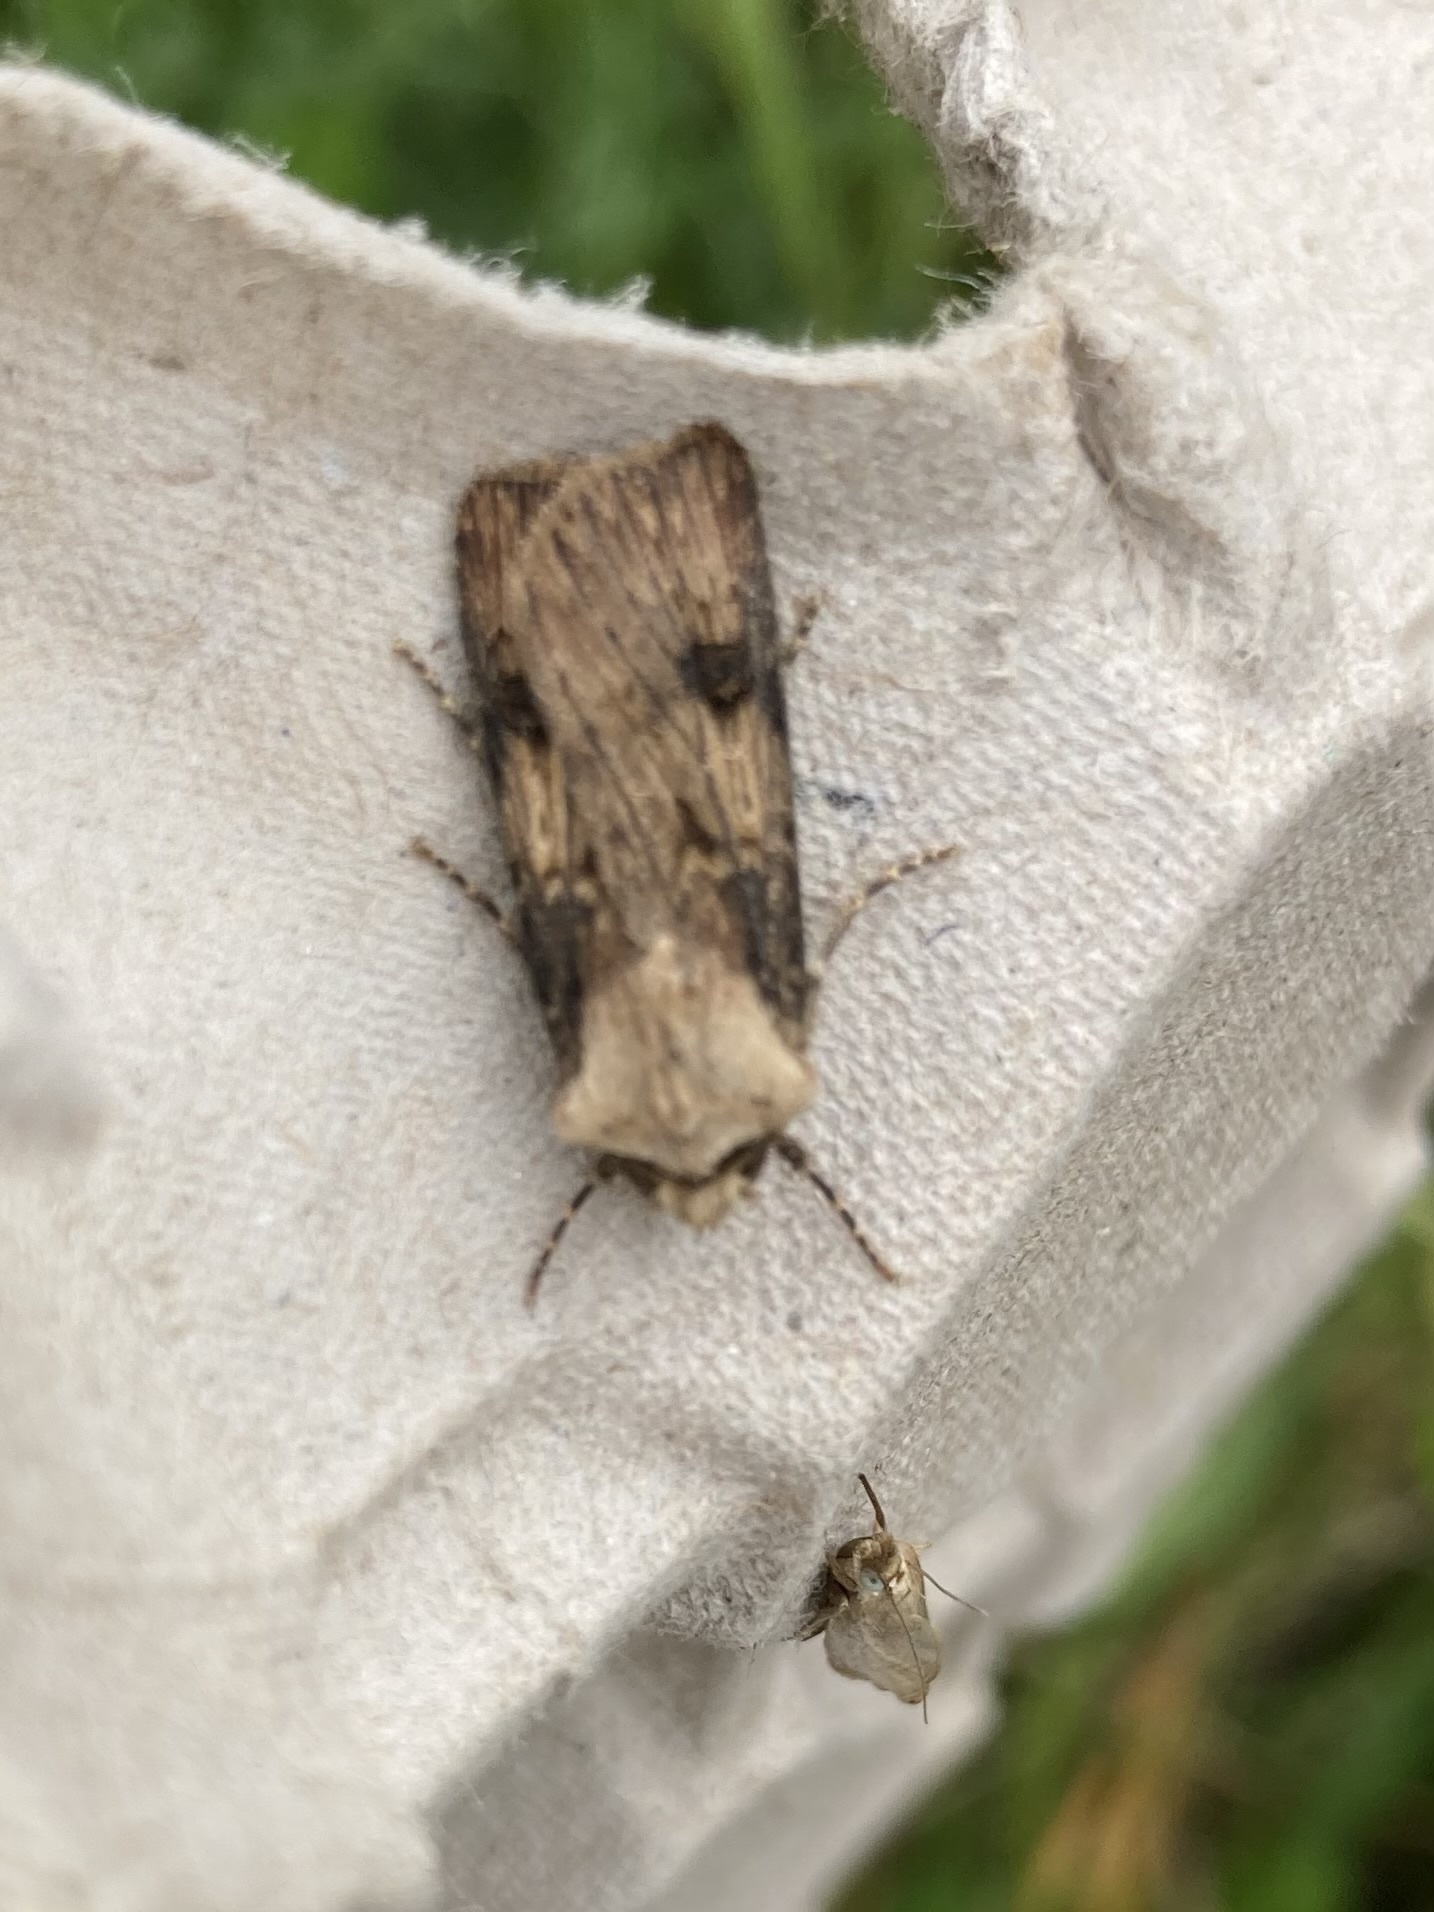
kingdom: Animalia
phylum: Arthropoda
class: Insecta
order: Lepidoptera
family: Noctuidae
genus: Agrotis
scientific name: Agrotis puta
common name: Shuttle-shaped dart
